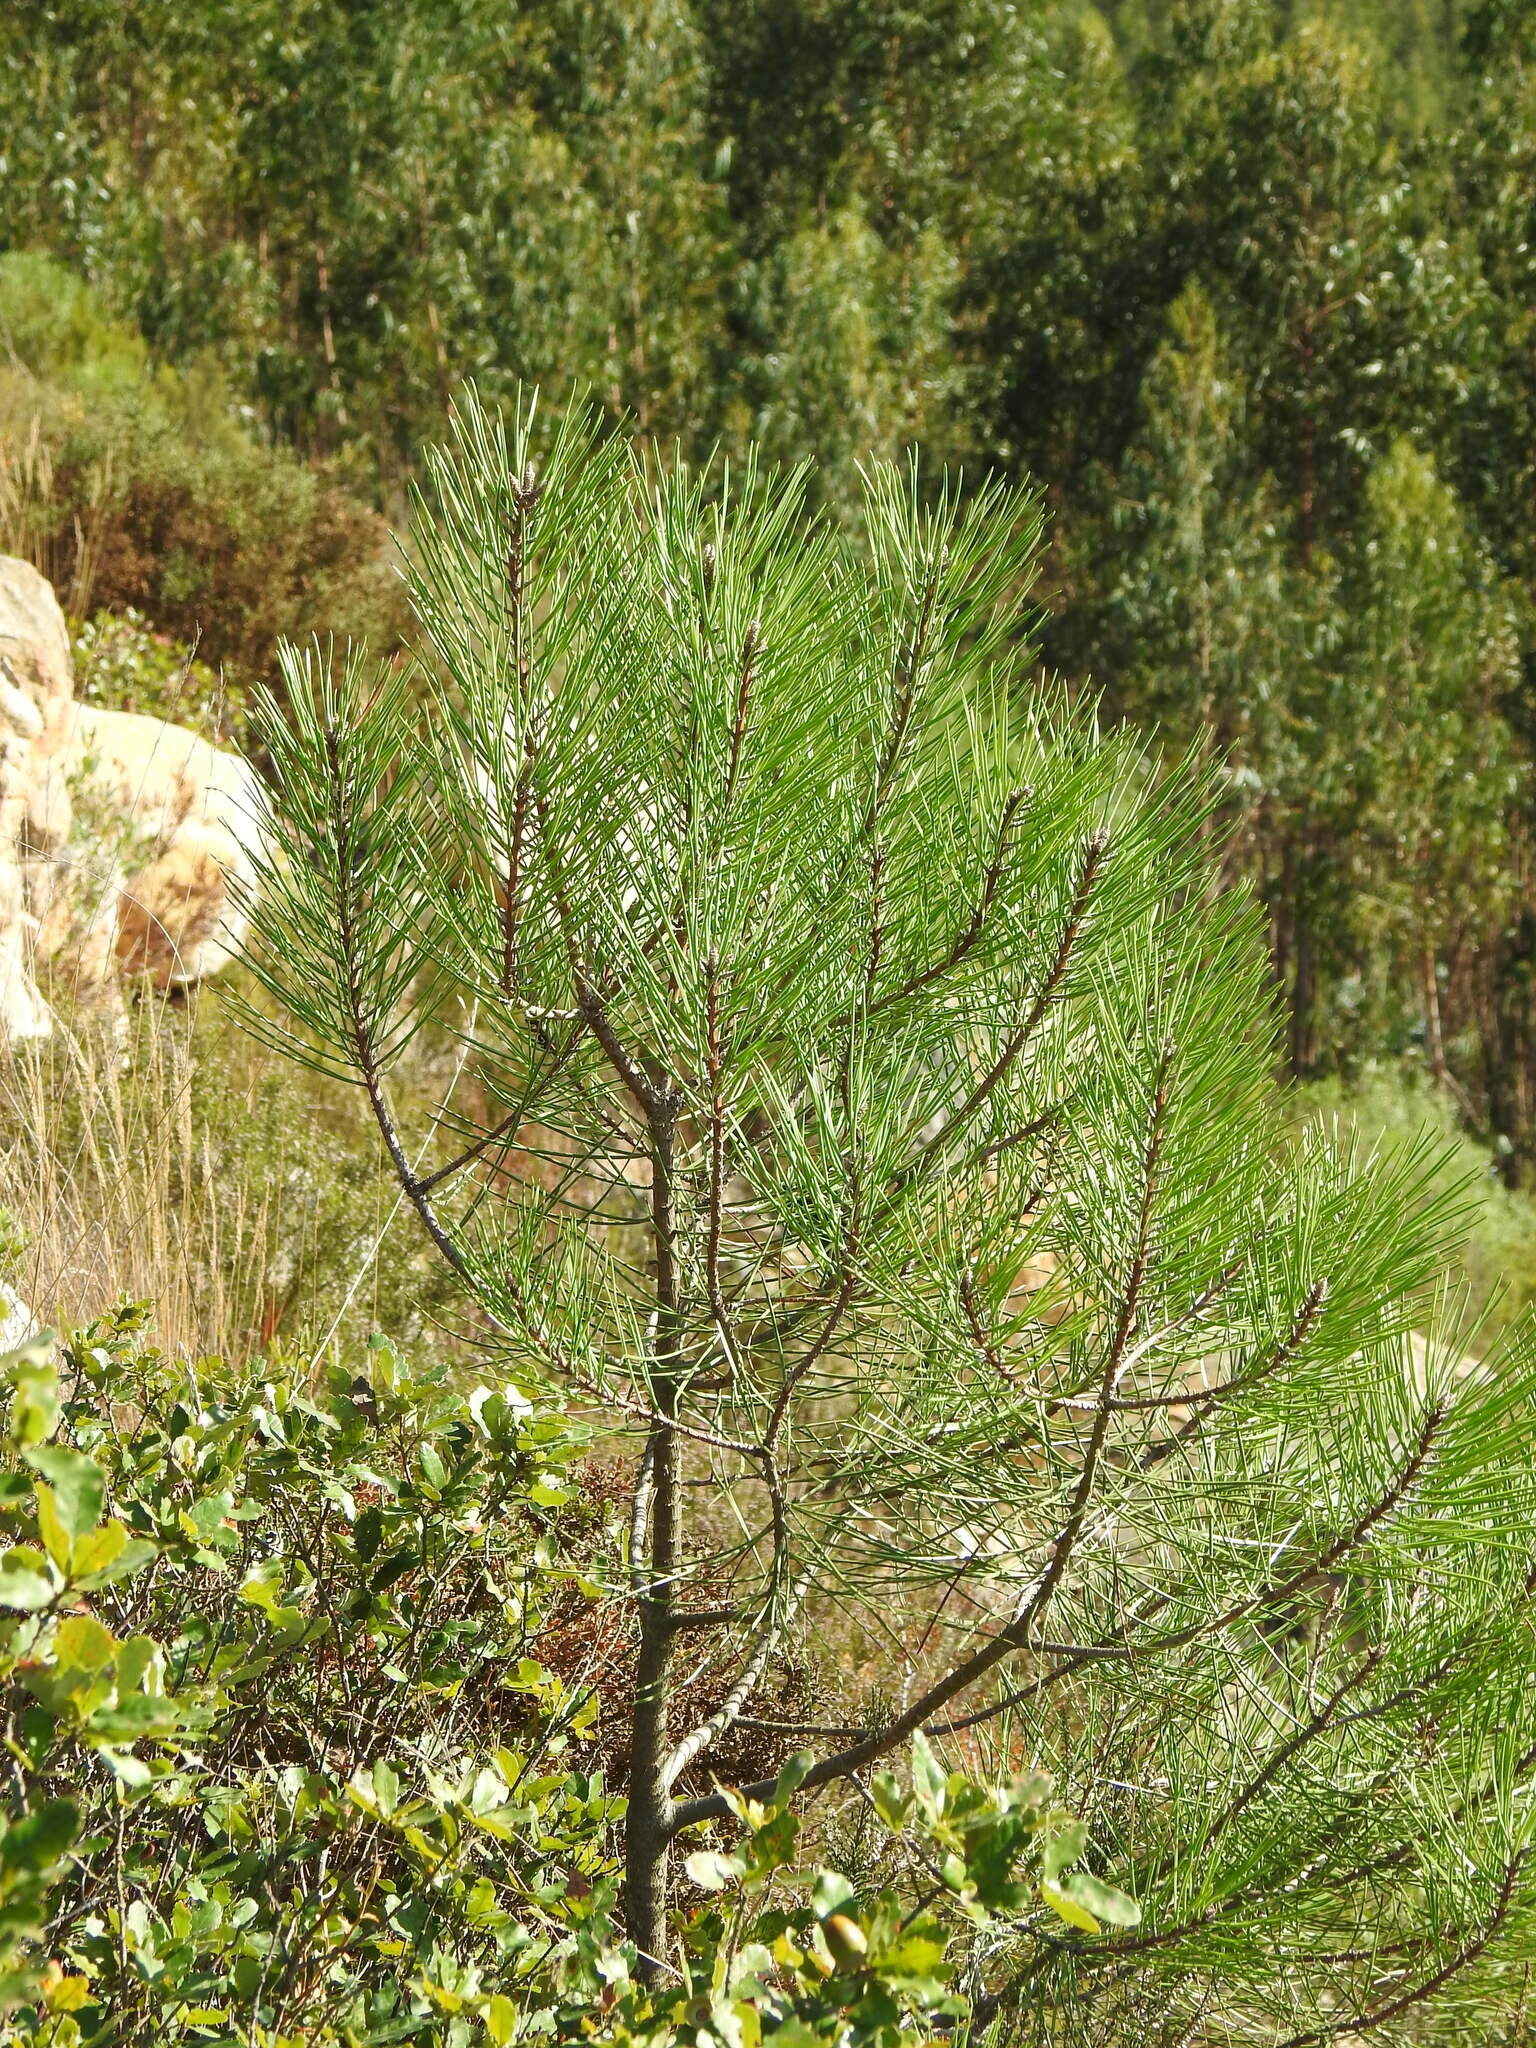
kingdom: Plantae
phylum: Tracheophyta
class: Pinopsida
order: Pinales
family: Pinaceae
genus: Pinus
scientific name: Pinus pinaster
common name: Maritime pine
